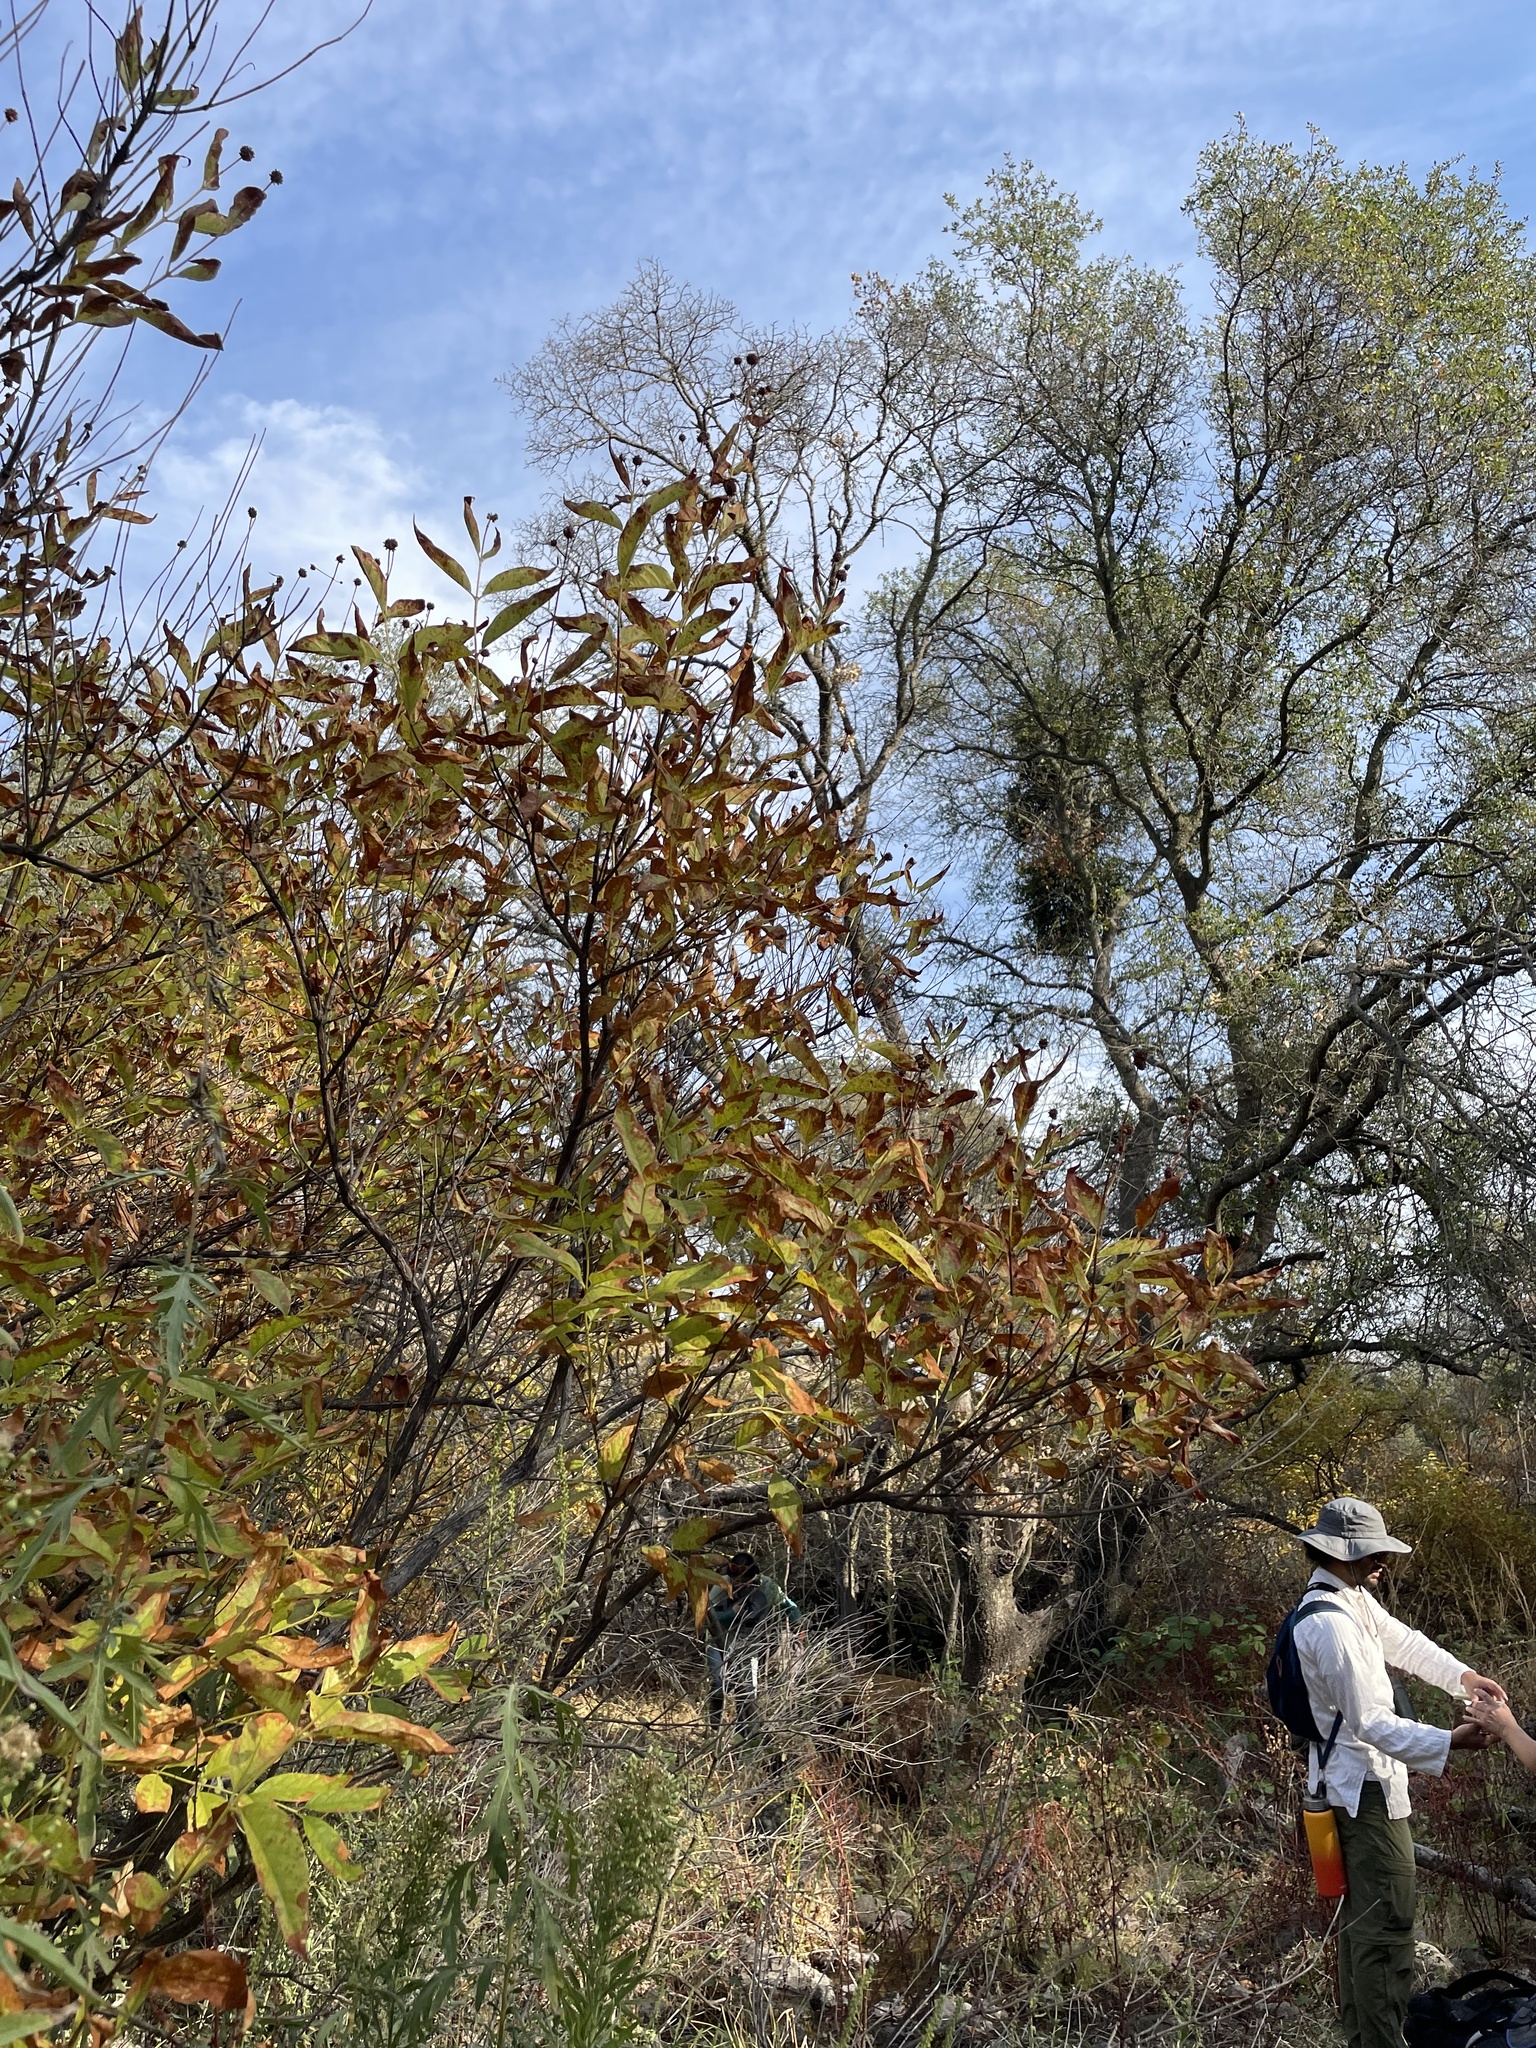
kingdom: Plantae
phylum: Tracheophyta
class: Magnoliopsida
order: Gentianales
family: Rubiaceae
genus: Cephalanthus
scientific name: Cephalanthus occidentalis
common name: Button-willow
